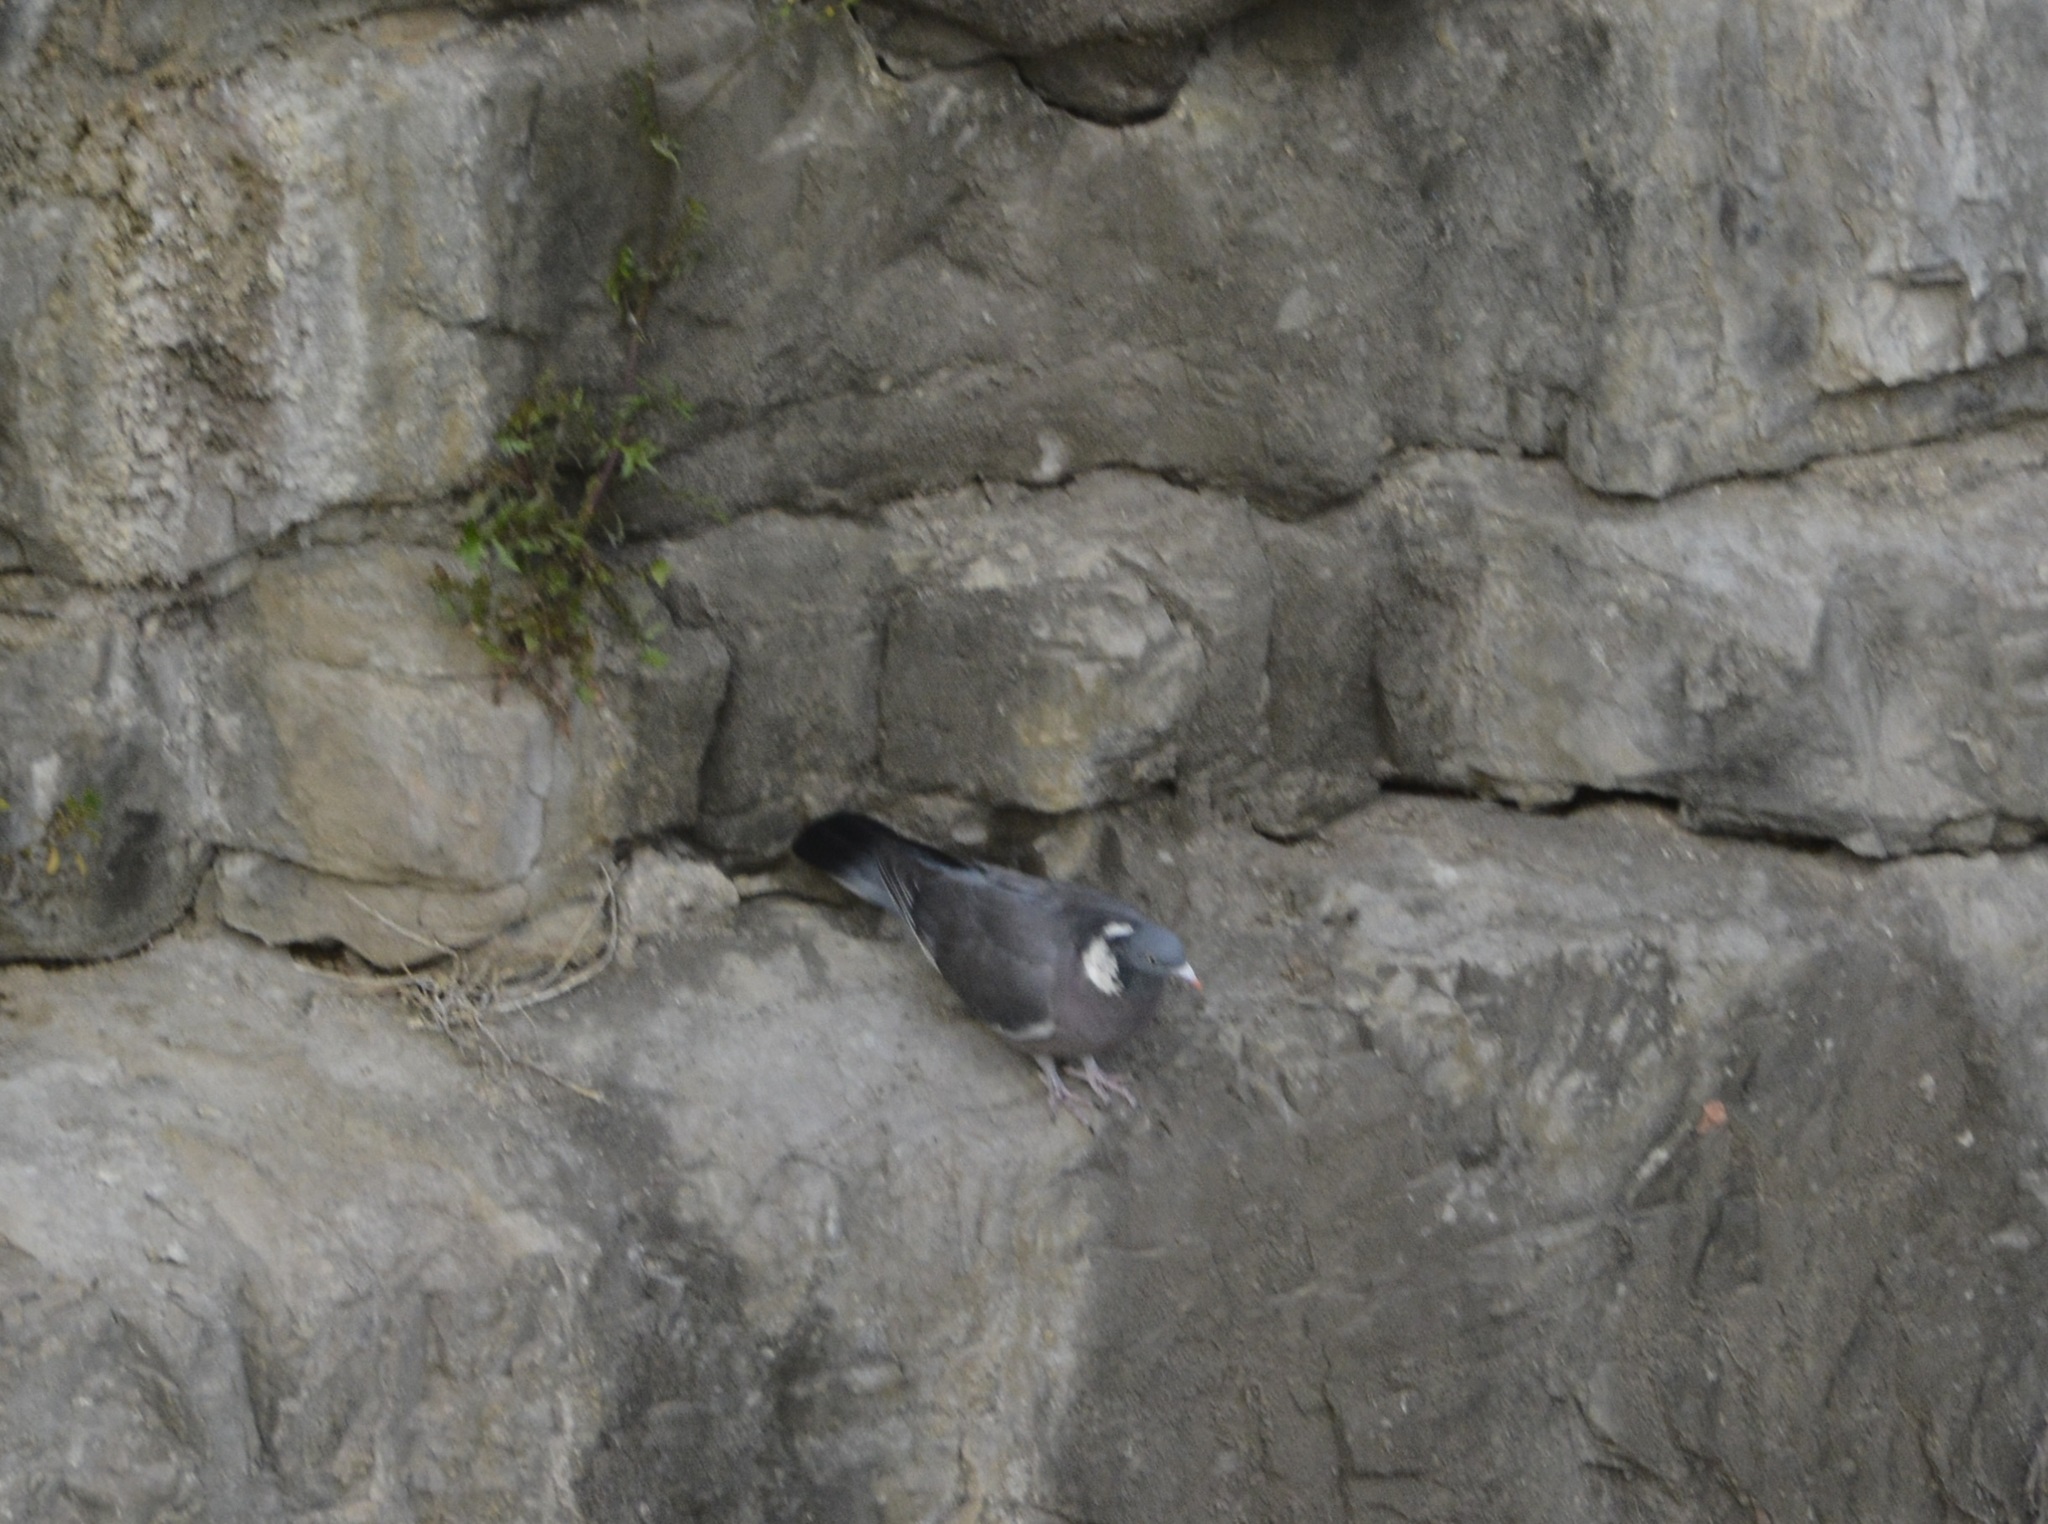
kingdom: Animalia
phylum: Chordata
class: Aves
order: Columbiformes
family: Columbidae
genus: Columba
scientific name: Columba palumbus
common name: Common wood pigeon
